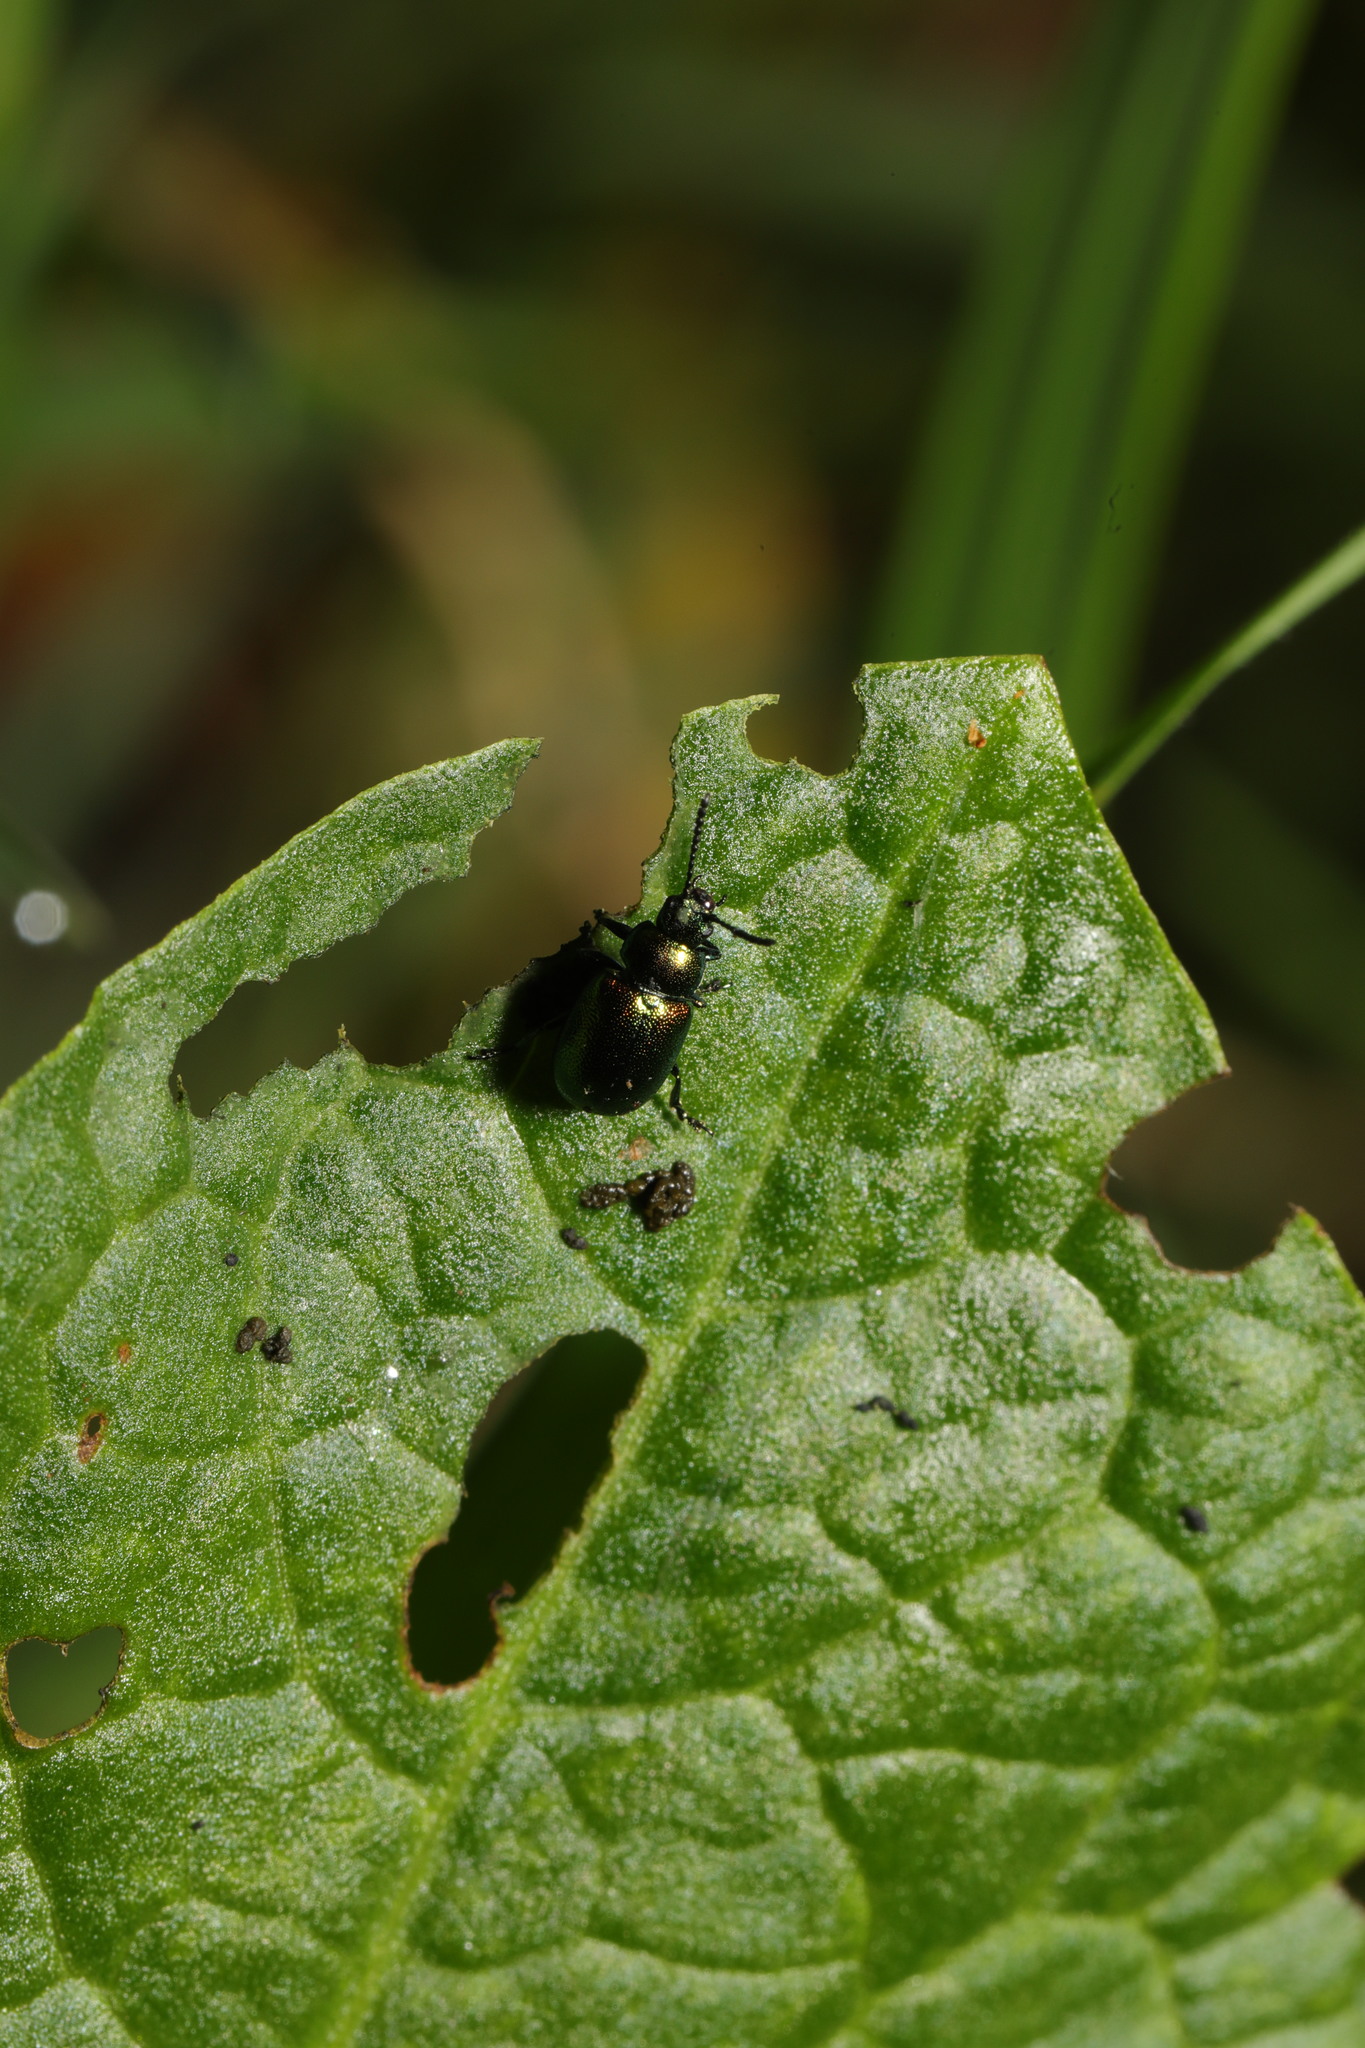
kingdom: Animalia
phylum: Arthropoda
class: Insecta
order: Coleoptera
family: Chrysomelidae
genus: Gastrophysa
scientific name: Gastrophysa viridula
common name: Green dock beetle
